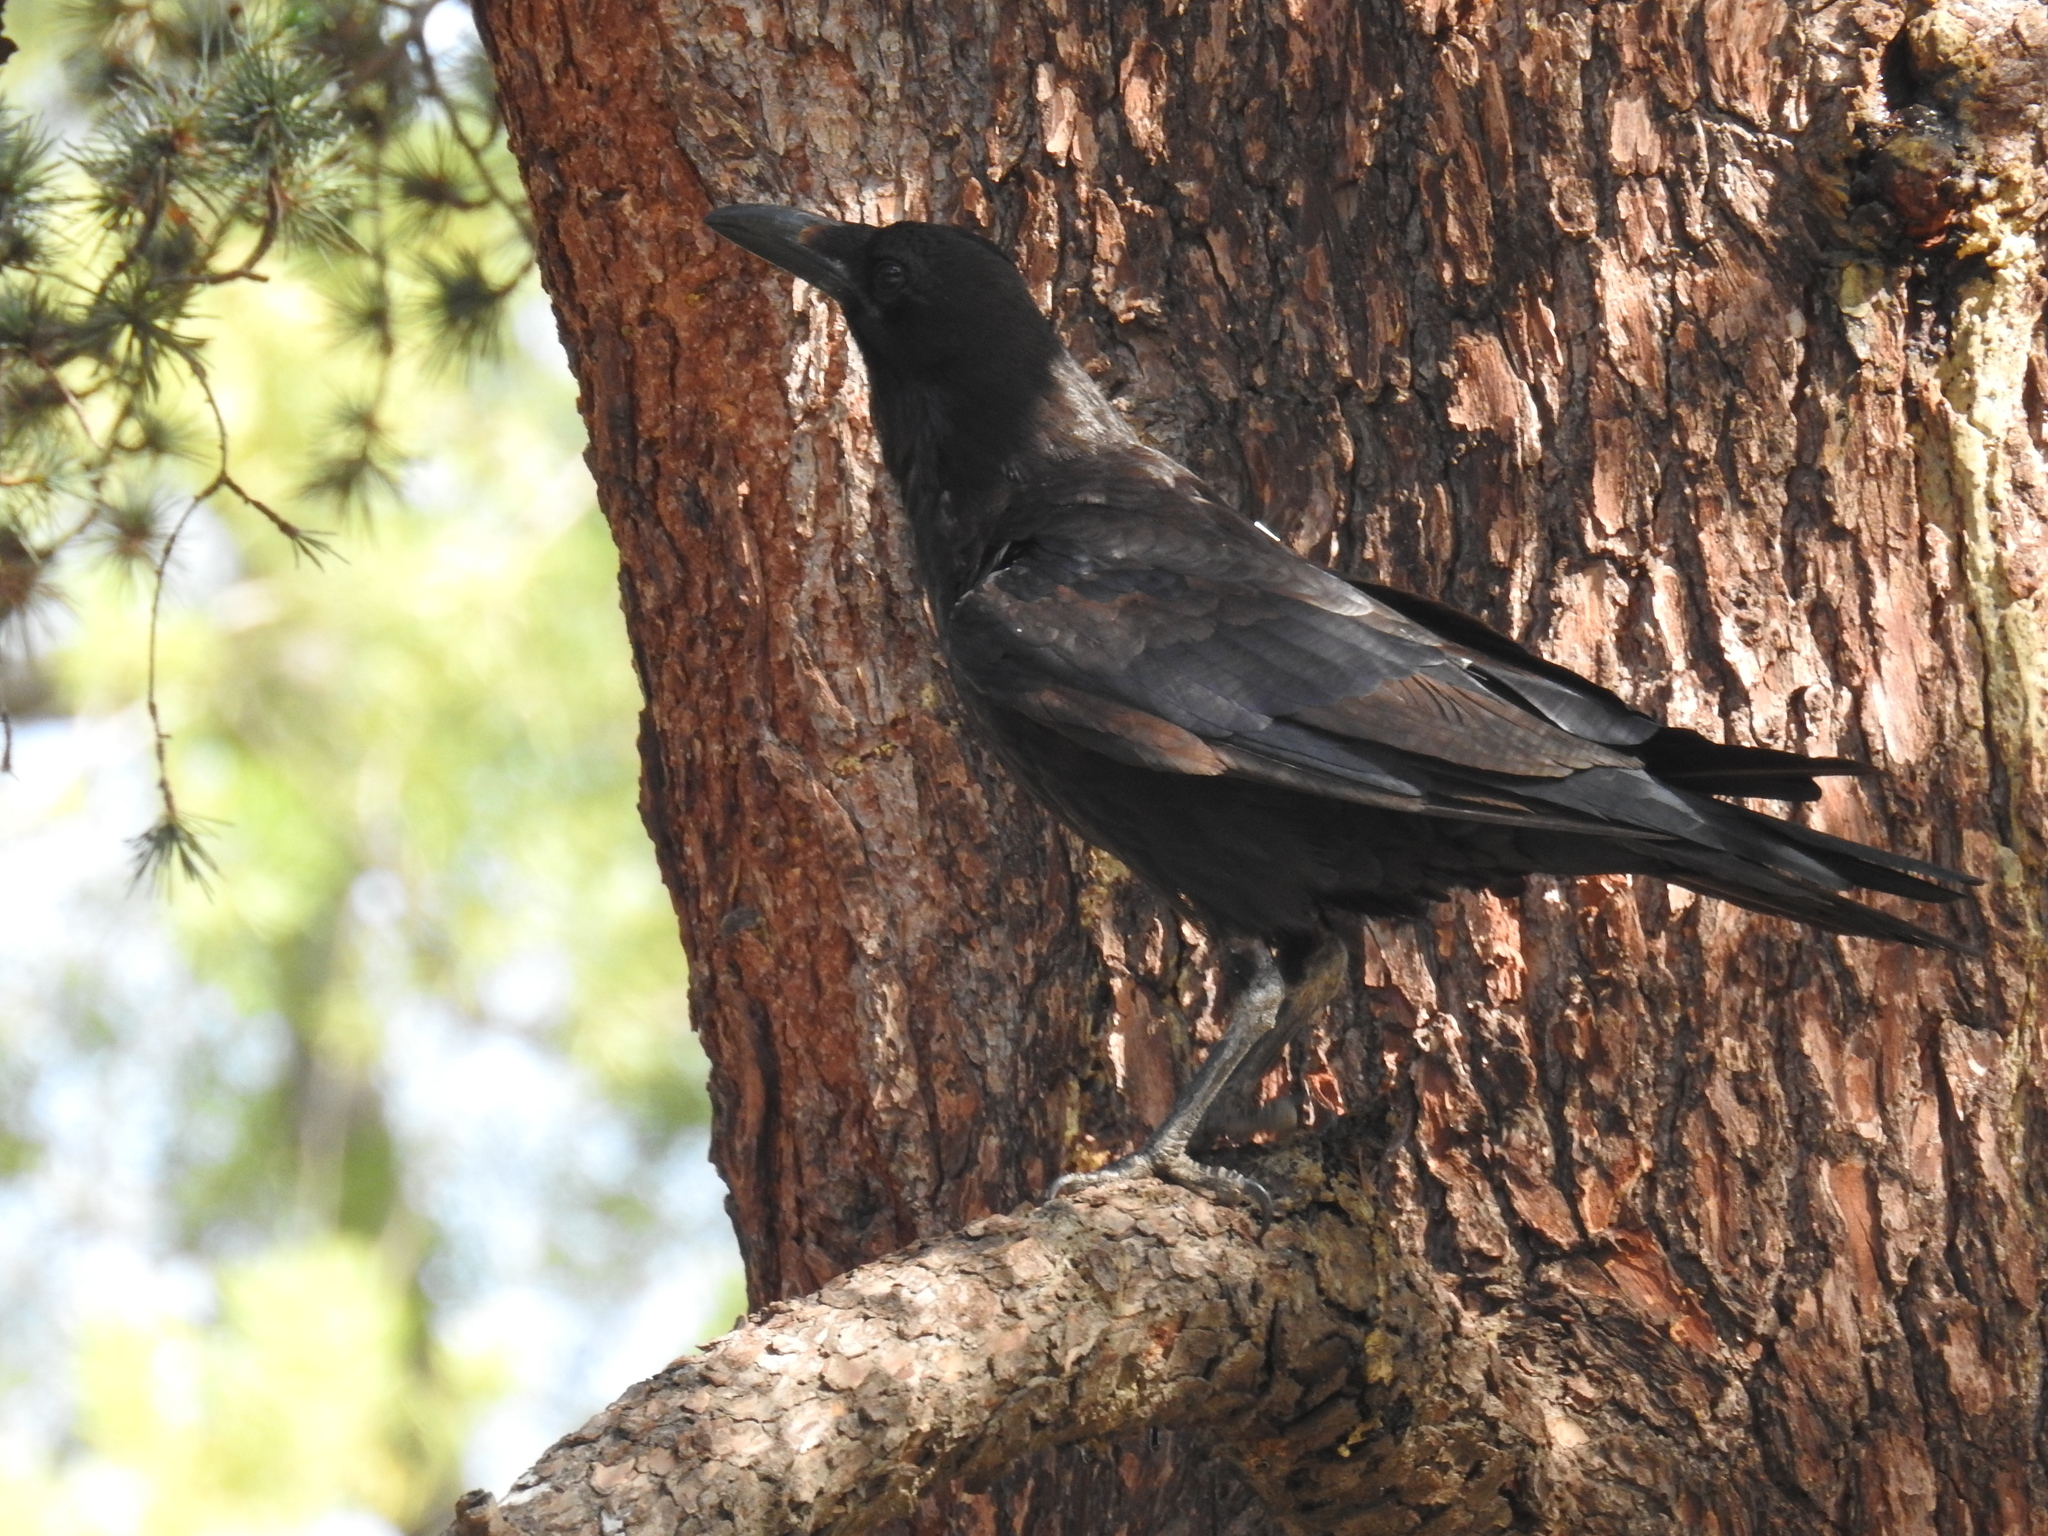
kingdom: Animalia
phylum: Chordata
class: Aves
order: Passeriformes
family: Corvidae
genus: Corvus
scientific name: Corvus corax
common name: Common raven
